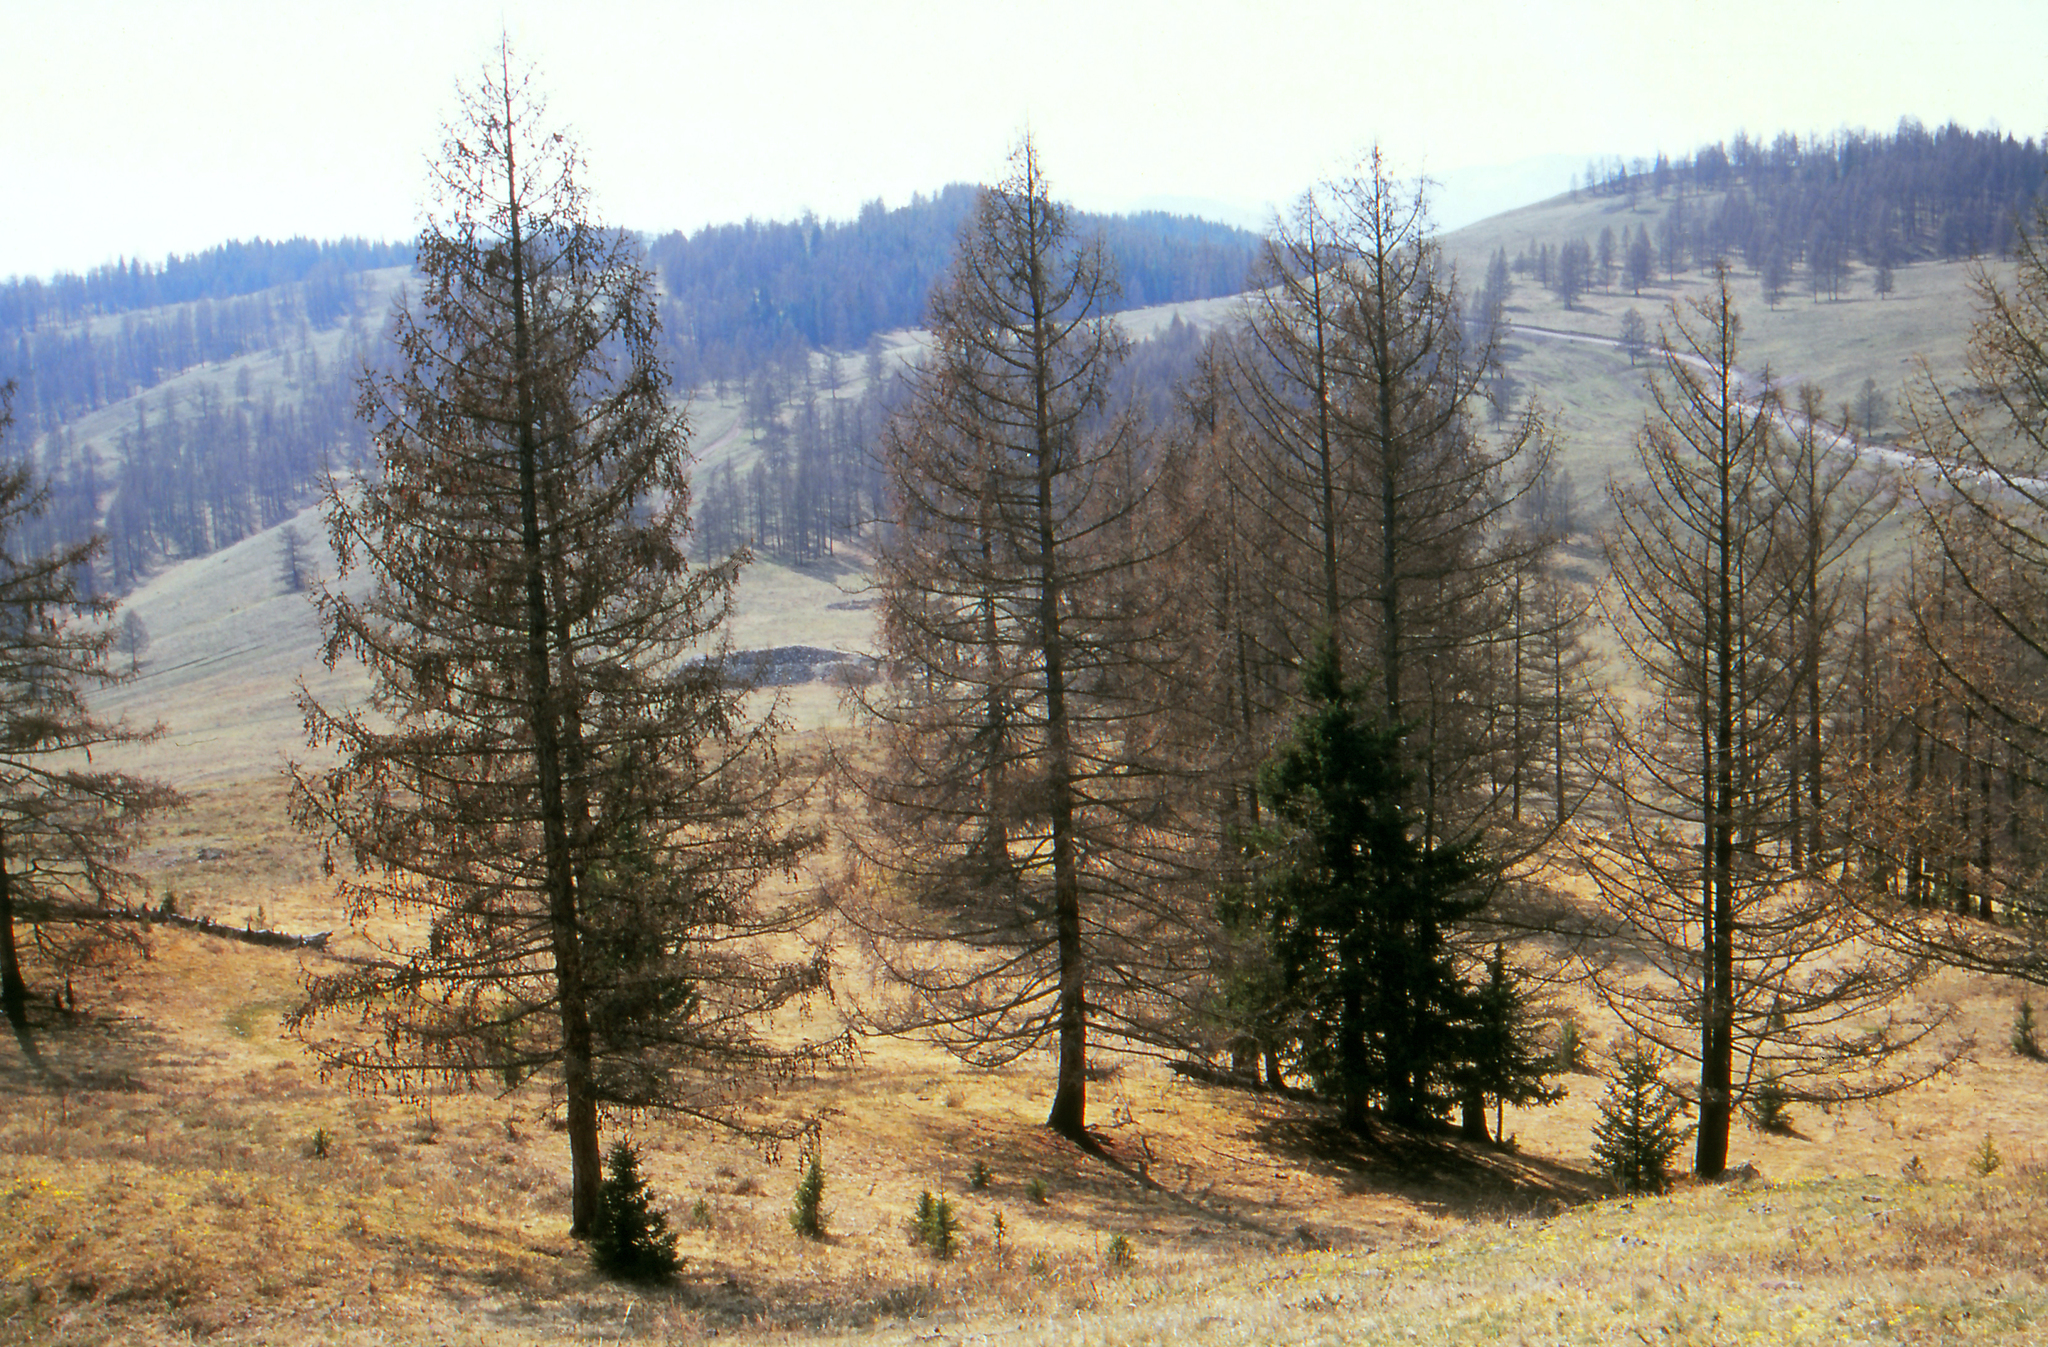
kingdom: Plantae
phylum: Tracheophyta
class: Pinopsida
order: Pinales
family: Pinaceae
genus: Picea
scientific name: Picea obovata
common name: Siberian spruce
